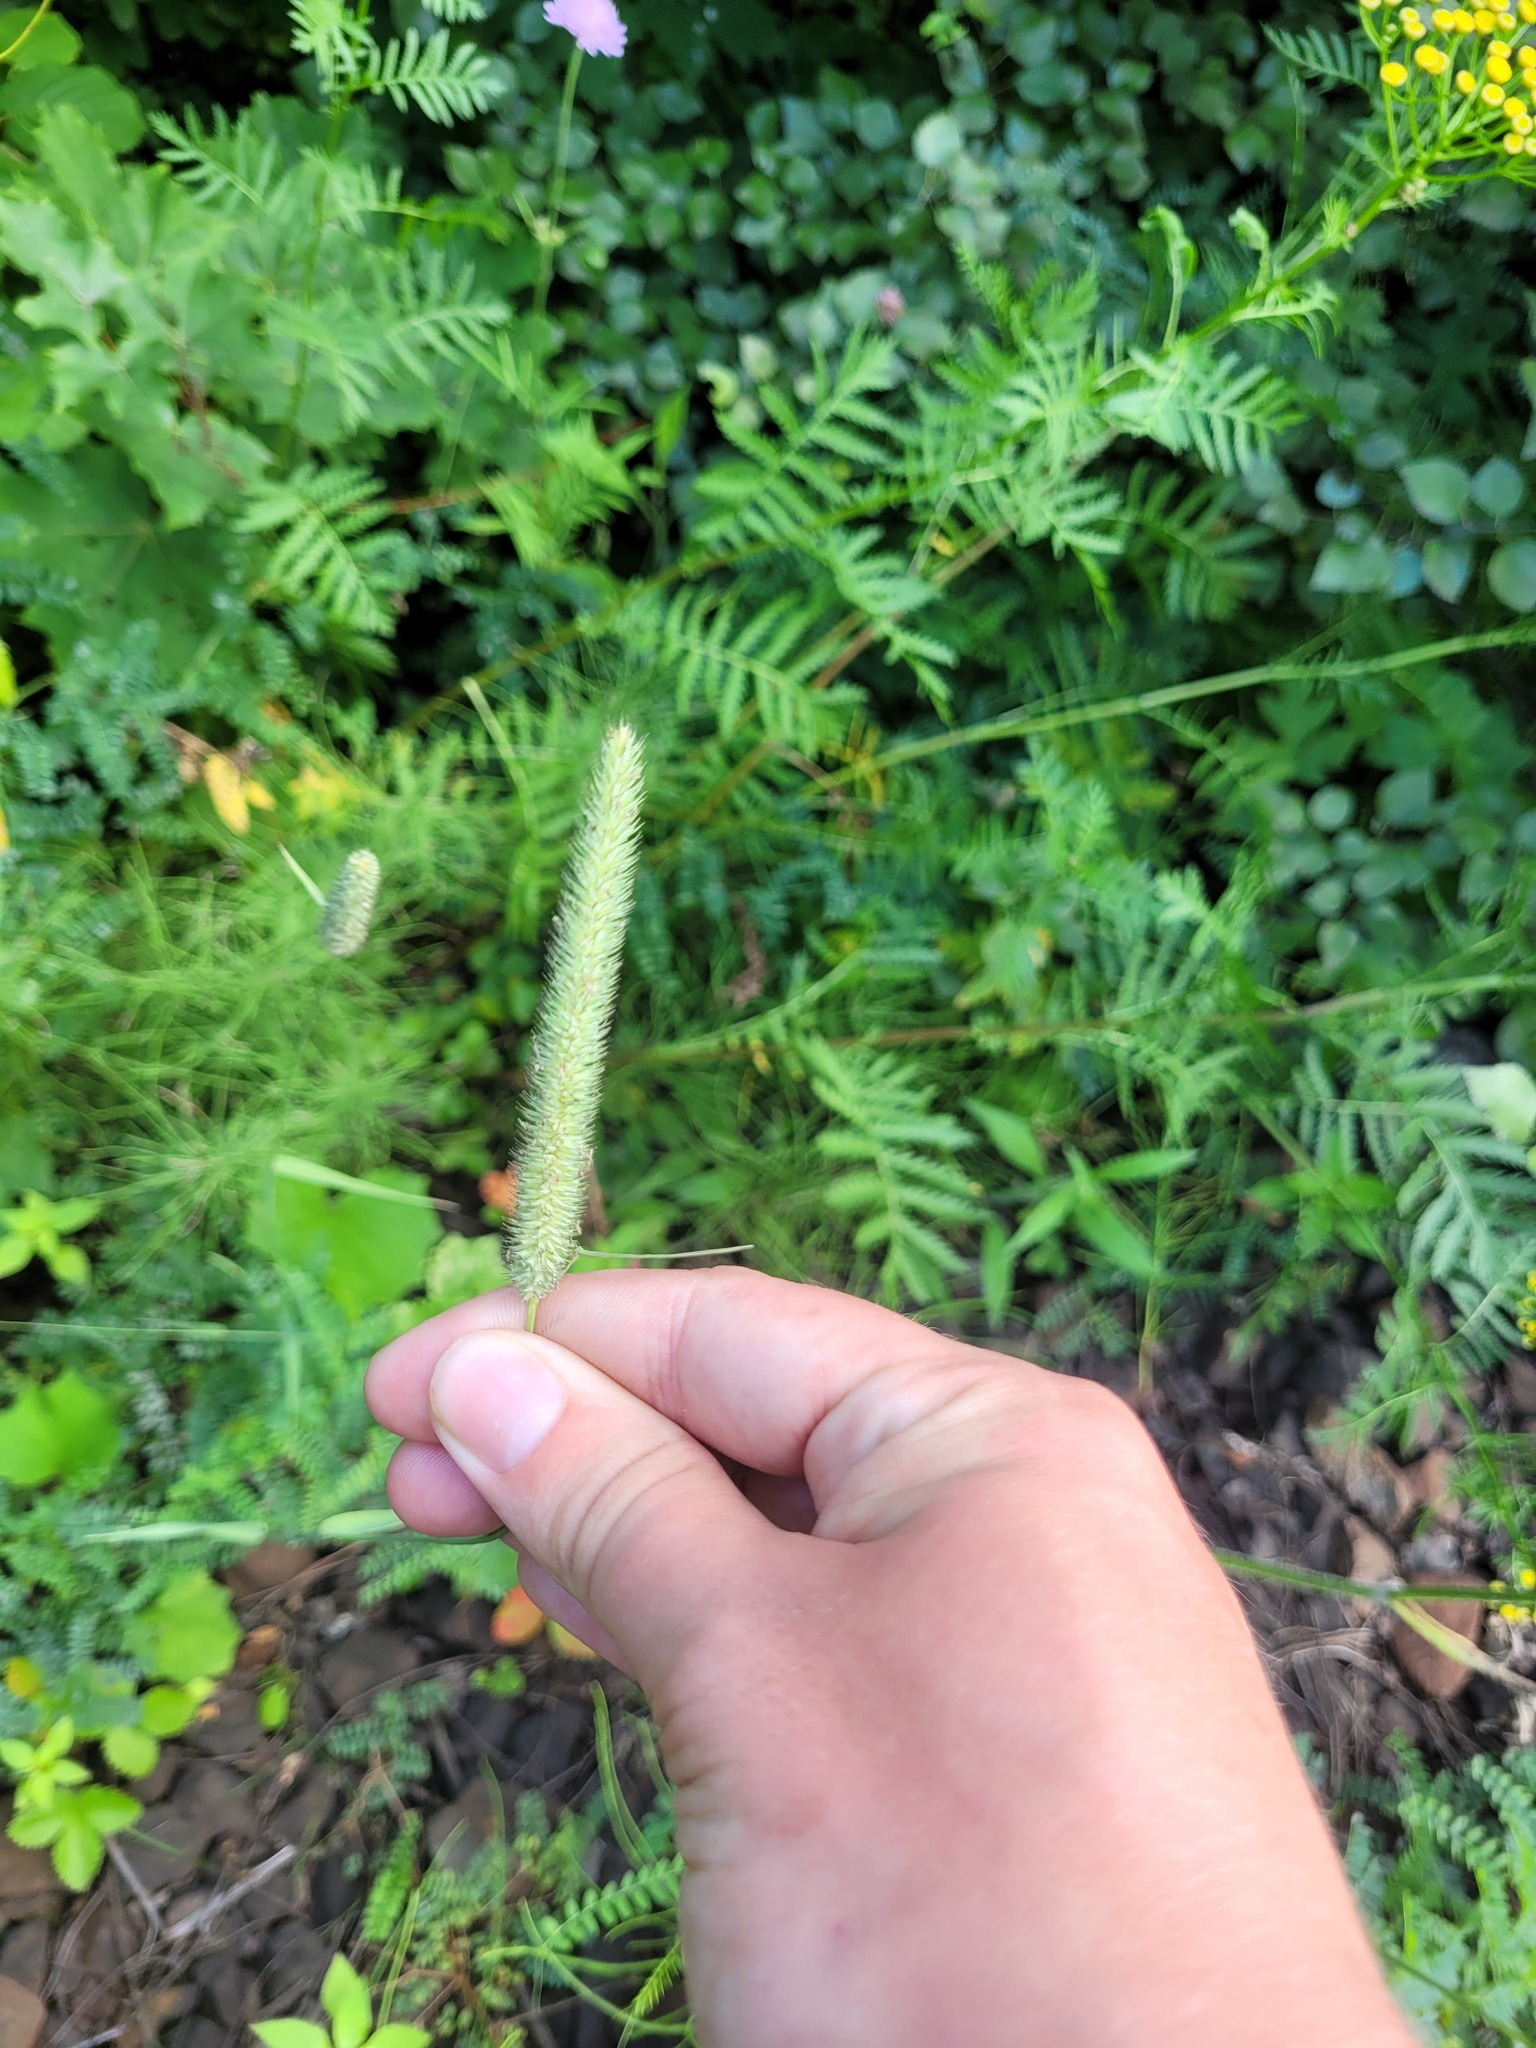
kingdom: Plantae
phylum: Tracheophyta
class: Liliopsida
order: Poales
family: Poaceae
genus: Phleum
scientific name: Phleum pratense
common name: Timothy grass
